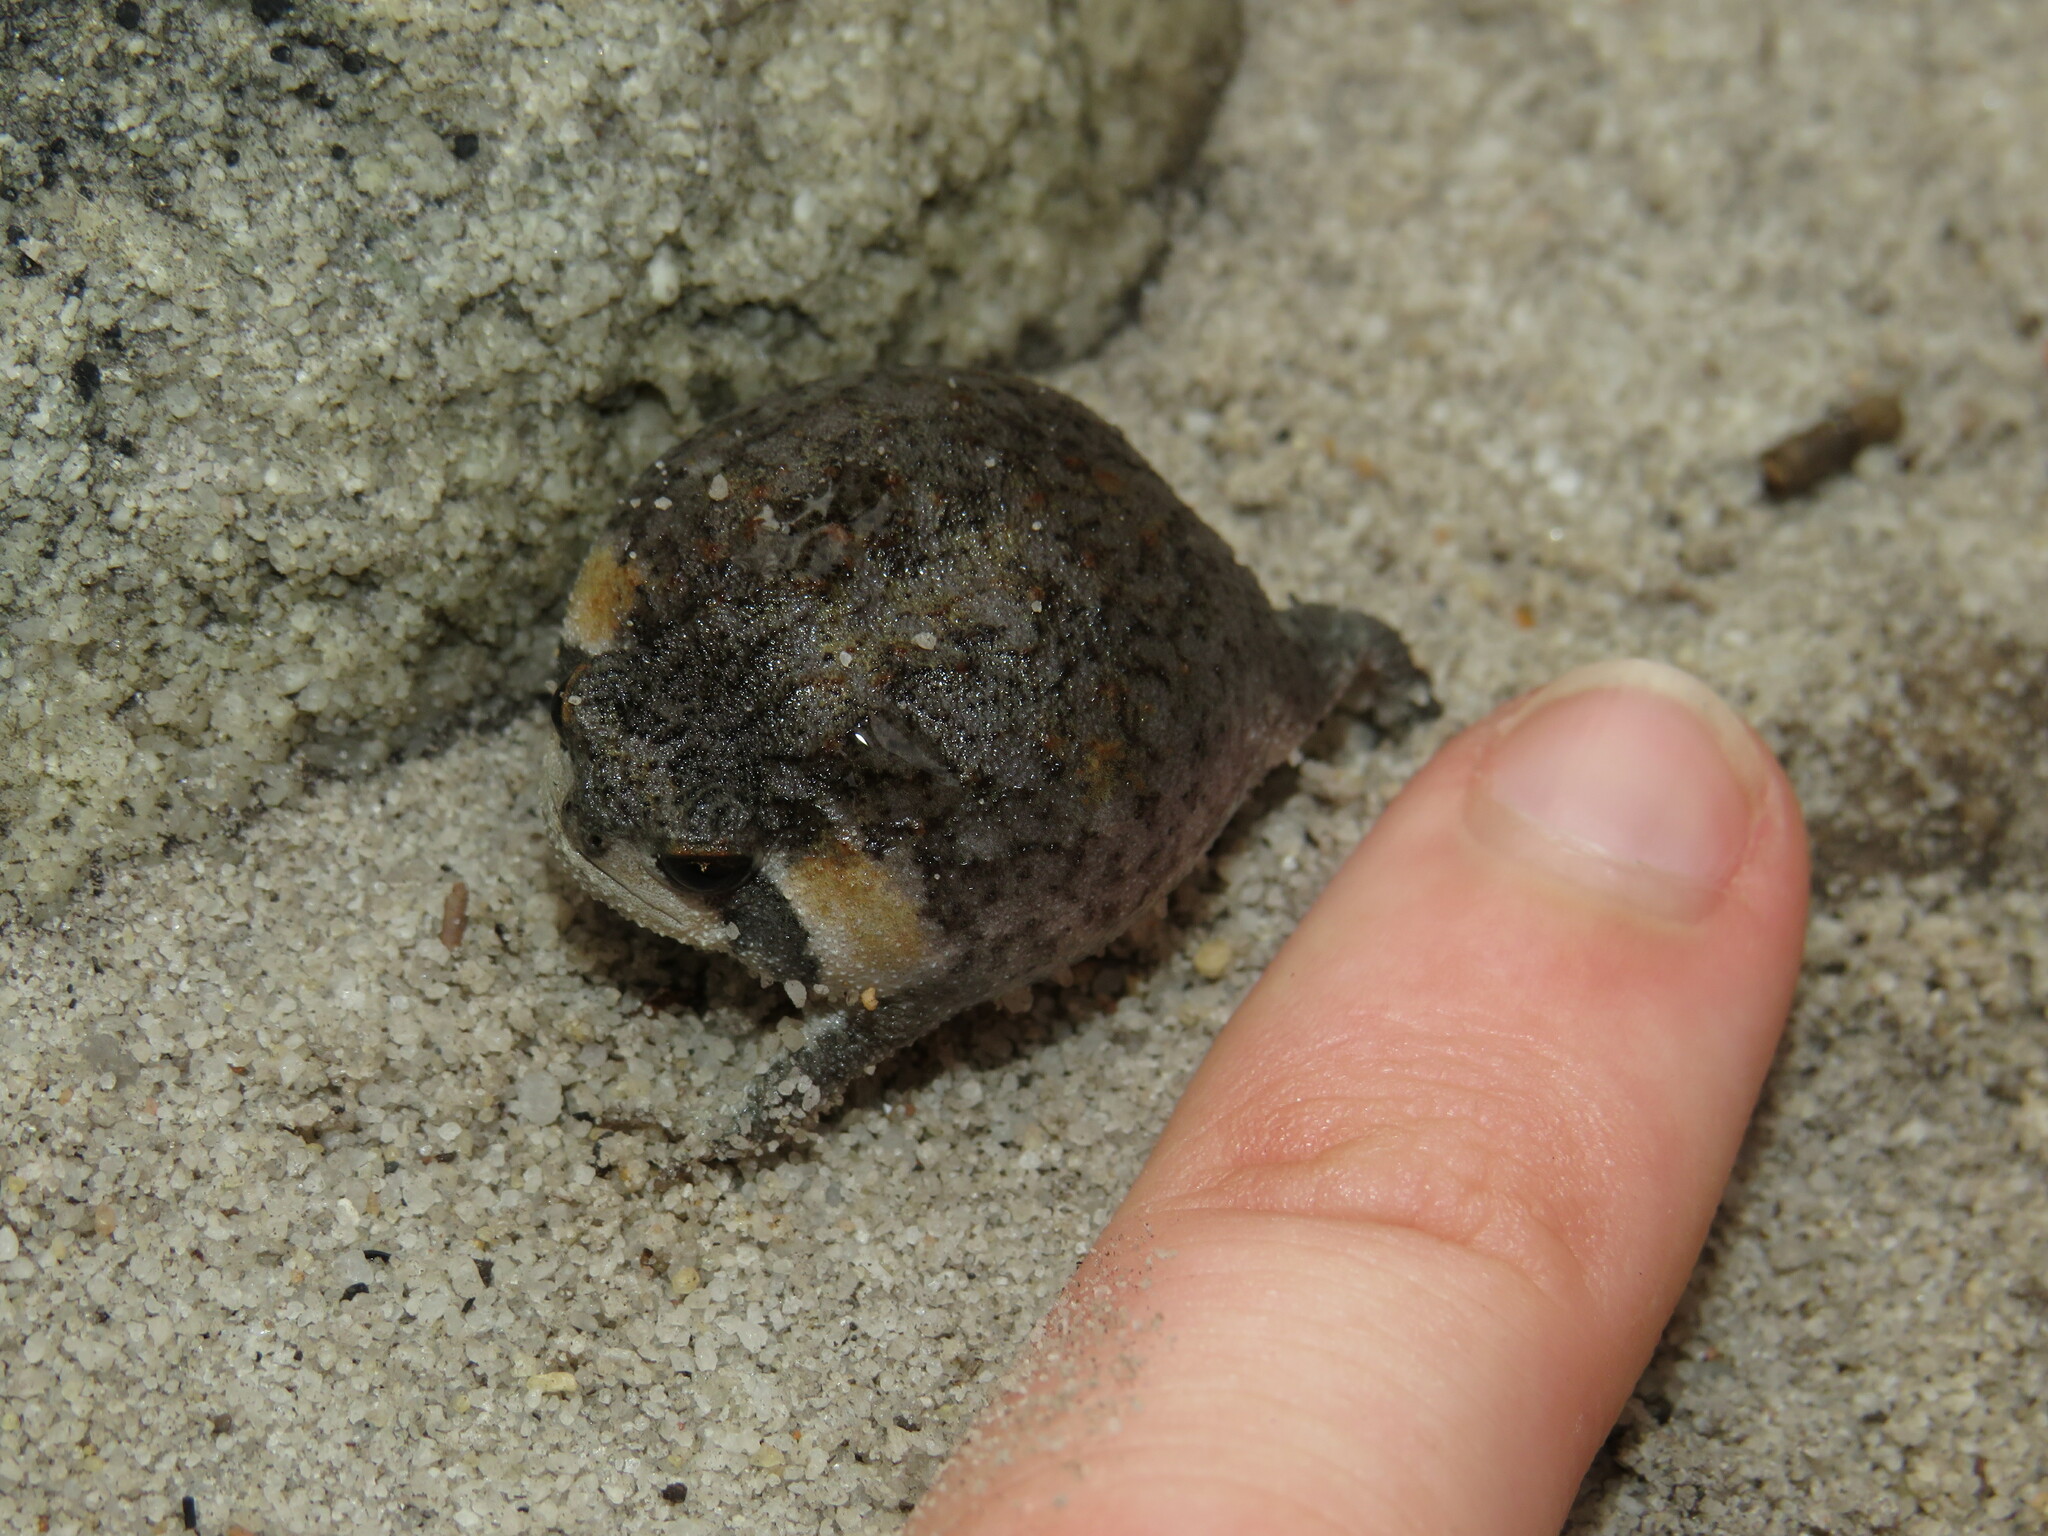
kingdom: Animalia
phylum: Chordata
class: Amphibia
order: Anura
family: Brevicipitidae
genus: Breviceps
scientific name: Breviceps montanus
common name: Mountain rain frog
